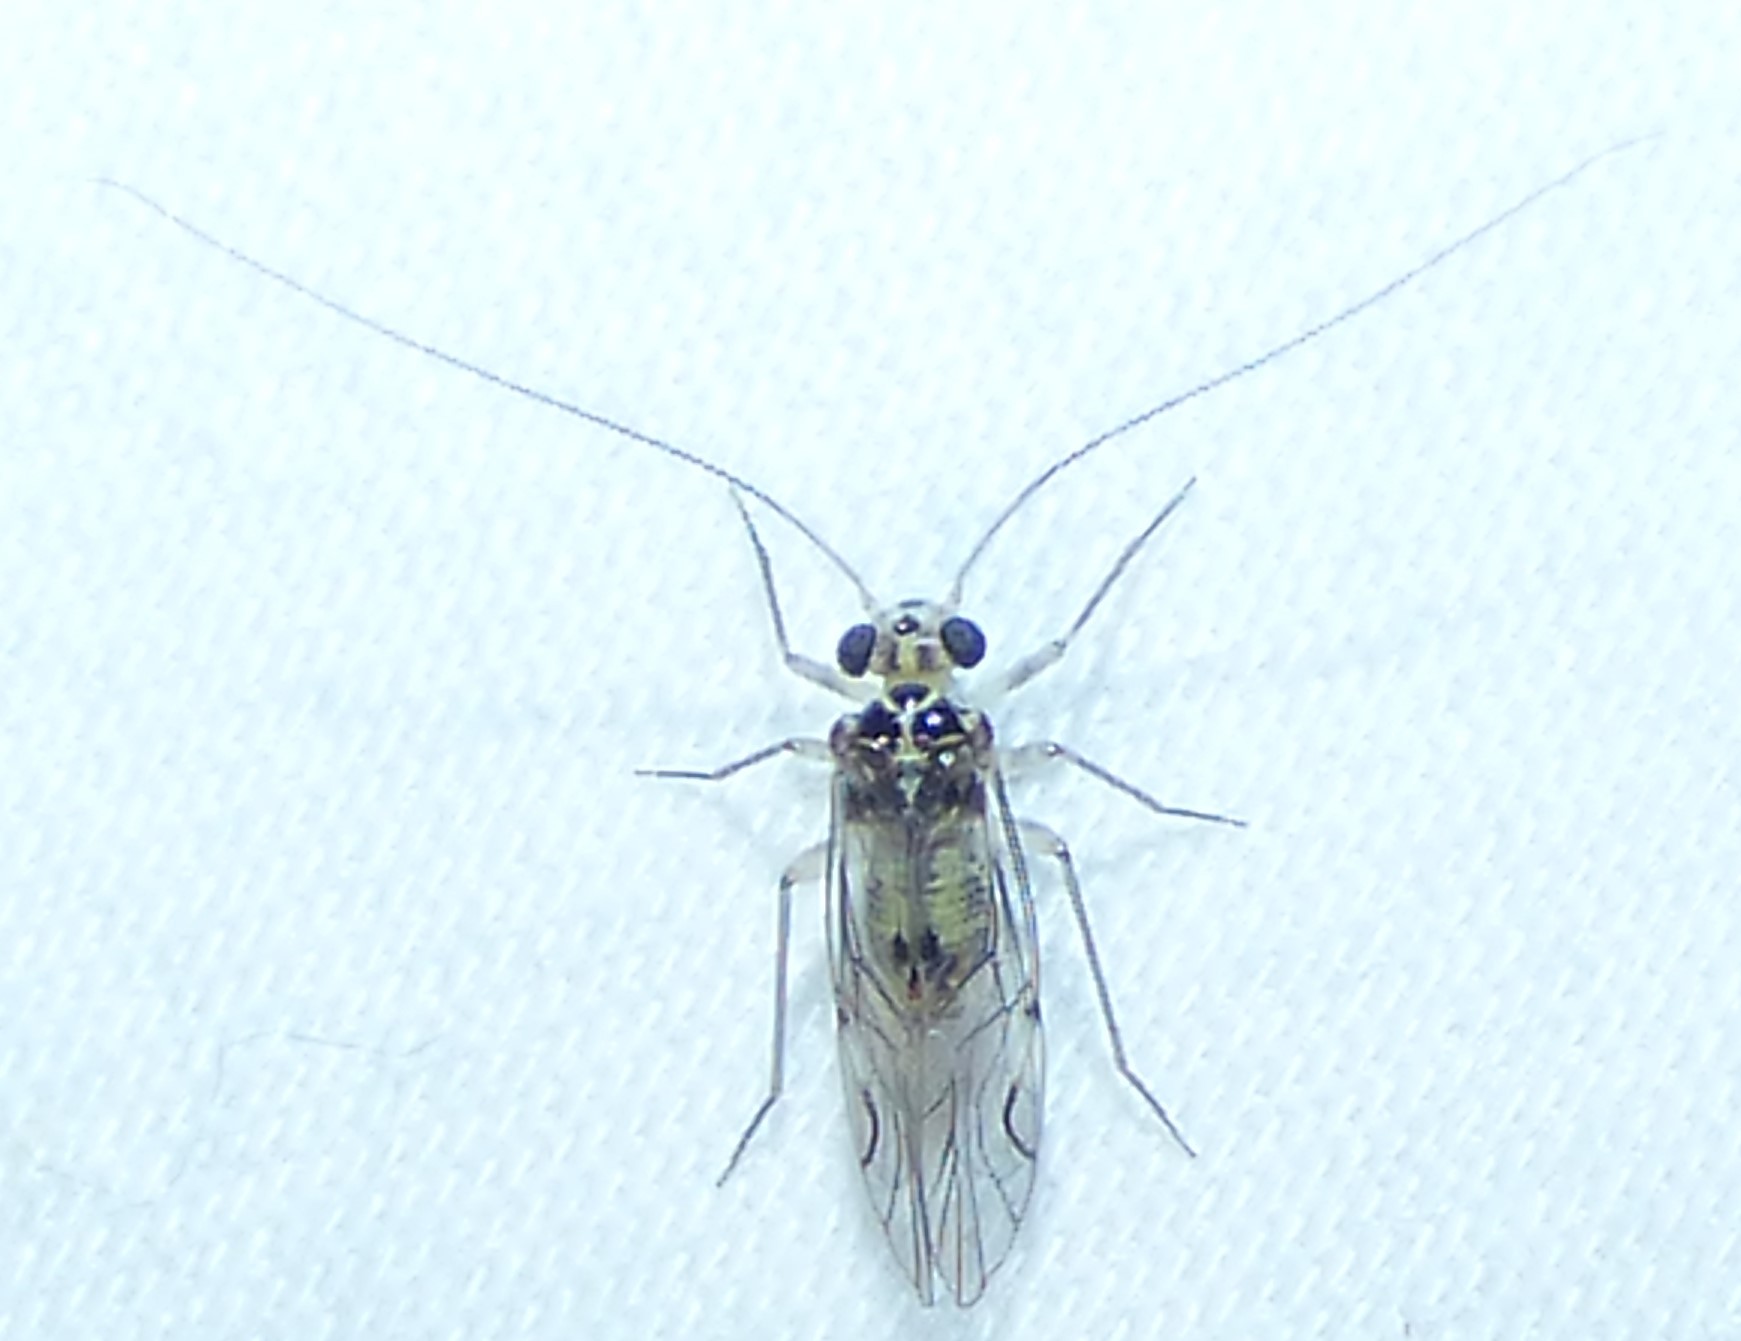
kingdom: Animalia
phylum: Arthropoda
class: Insecta
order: Psocodea
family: Psocidae
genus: Metylophorus
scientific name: Metylophorus purus
